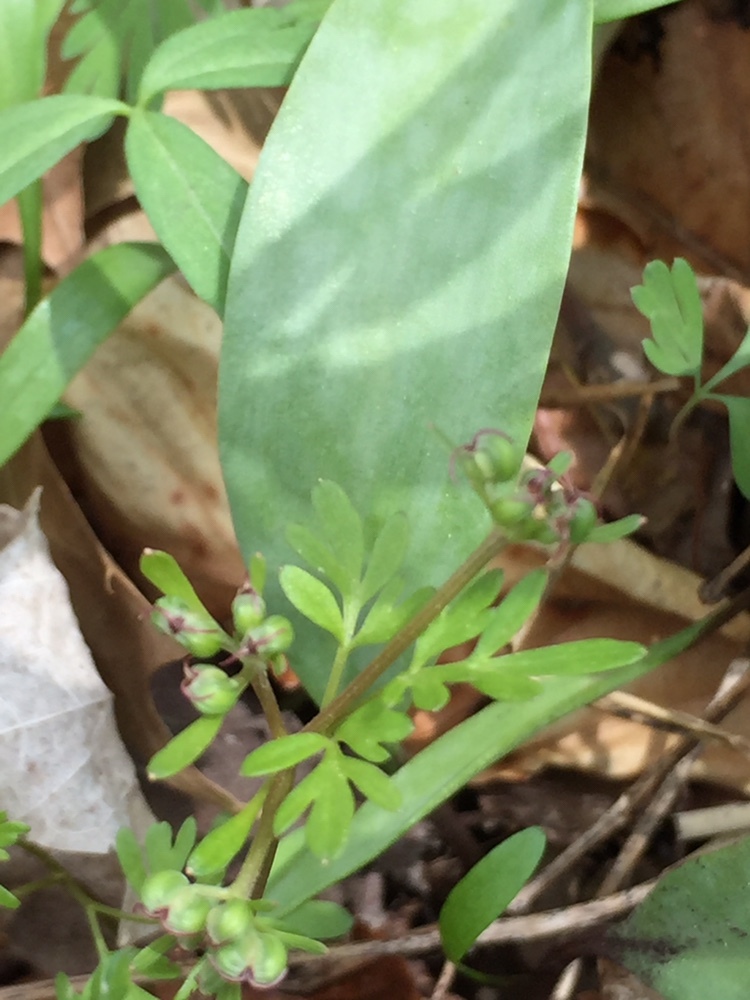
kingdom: Plantae
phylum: Tracheophyta
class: Magnoliopsida
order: Apiales
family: Apiaceae
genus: Erigenia
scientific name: Erigenia bulbosa
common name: Pepper-and-salt
